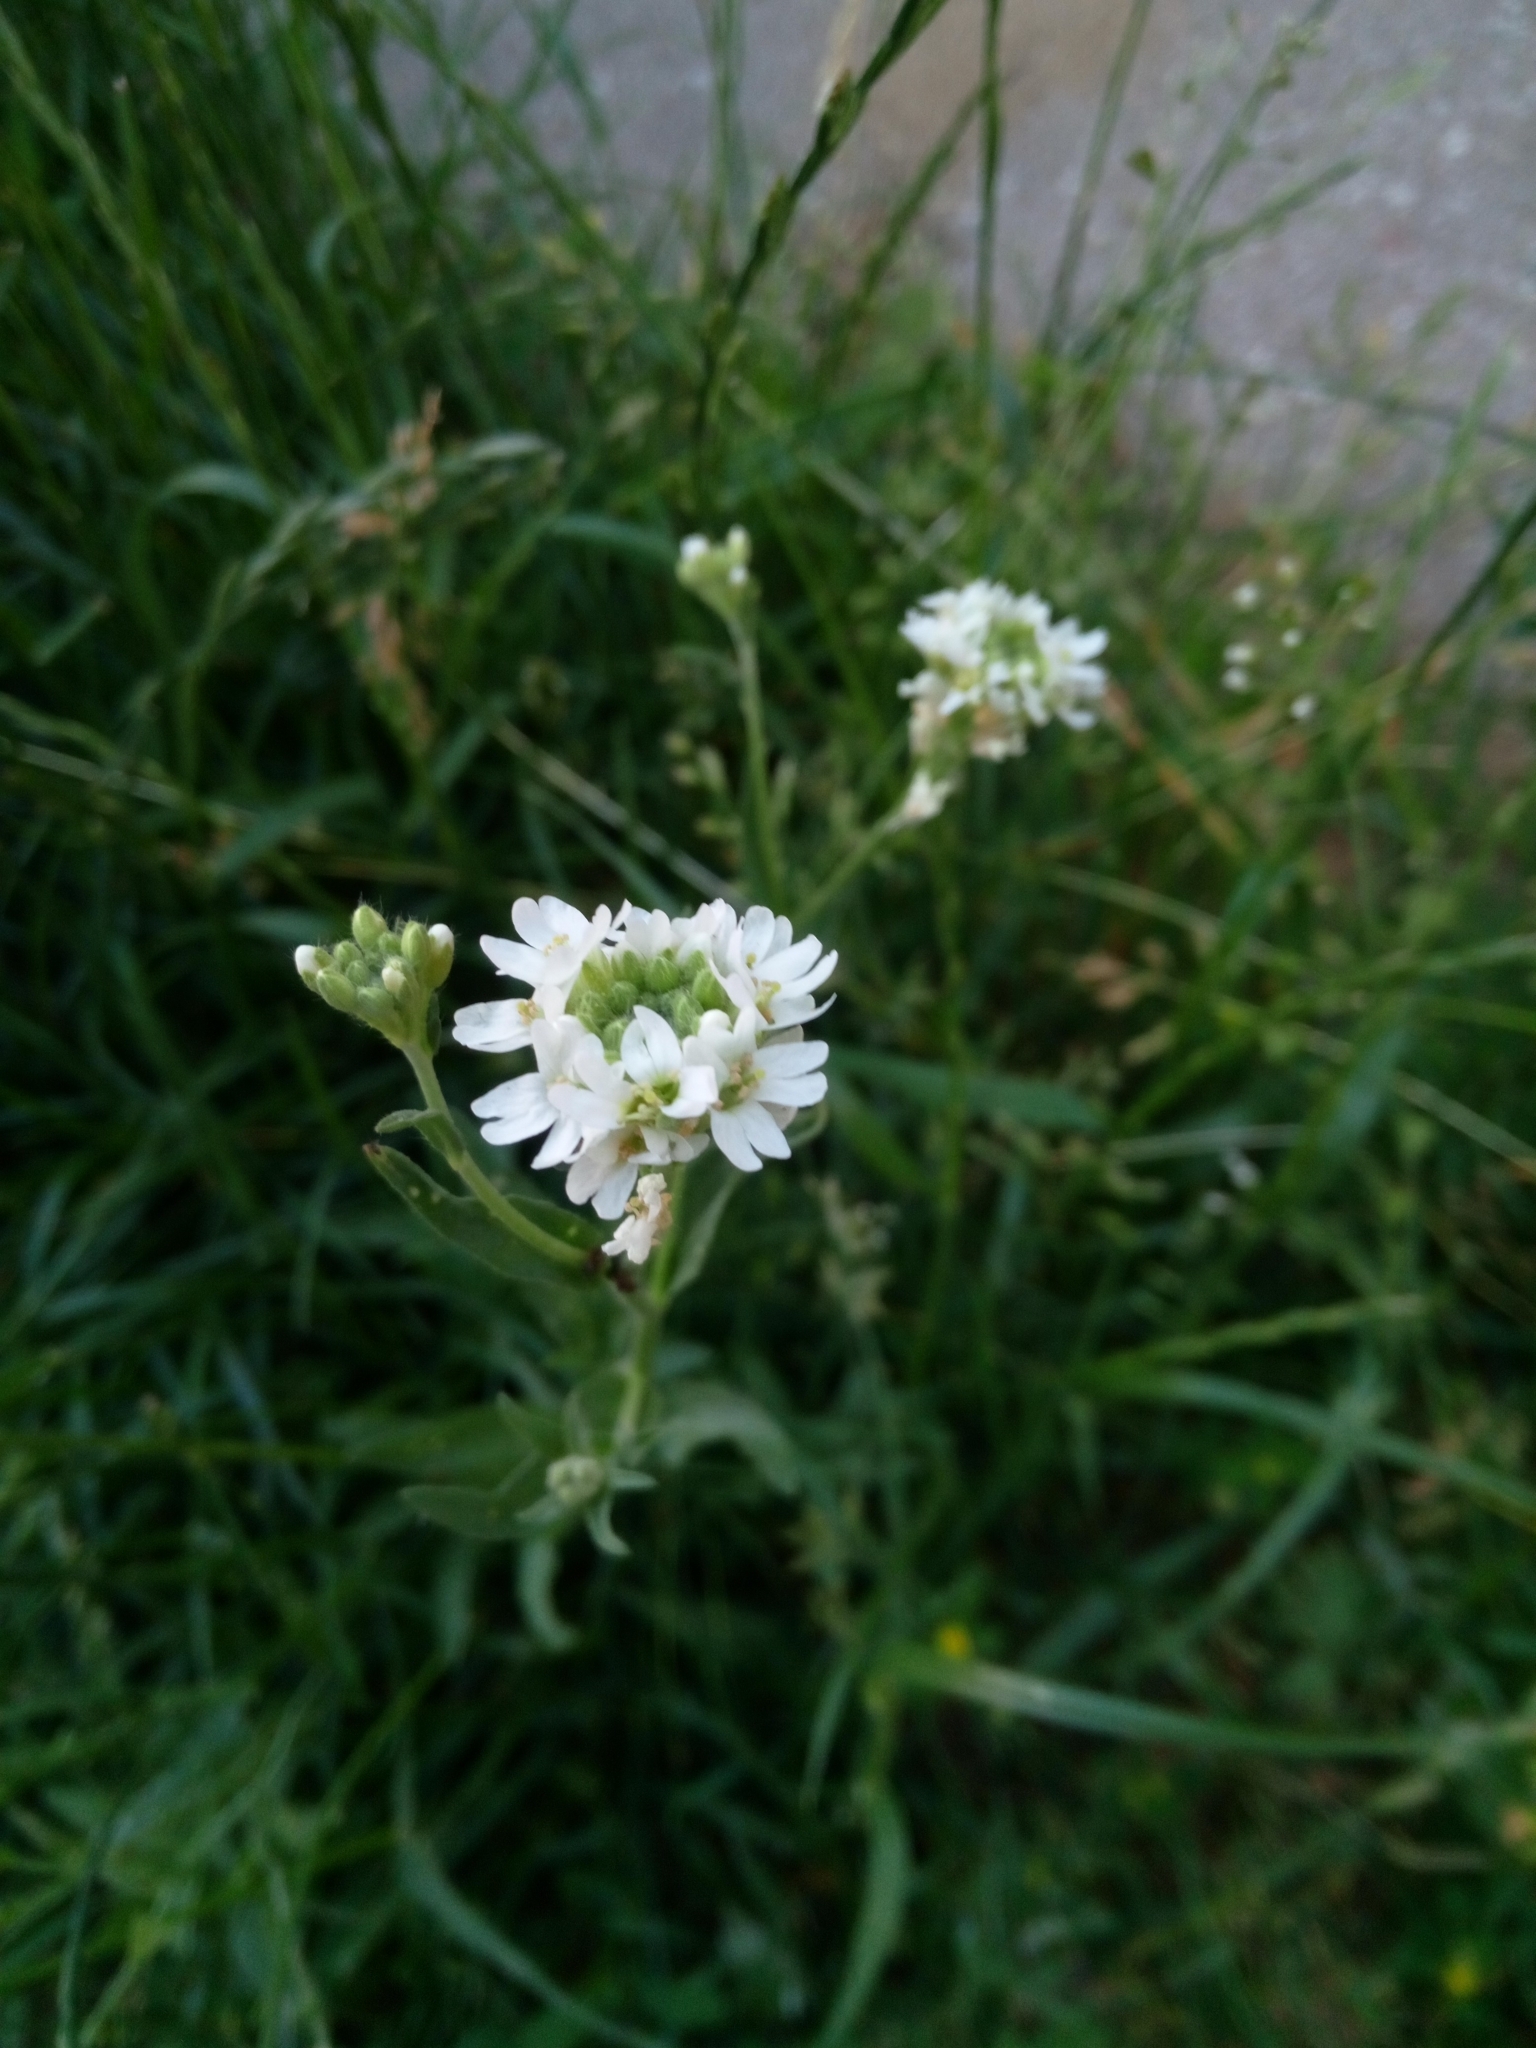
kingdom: Plantae
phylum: Tracheophyta
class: Magnoliopsida
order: Brassicales
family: Brassicaceae
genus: Berteroa
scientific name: Berteroa incana
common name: Hoary alison
